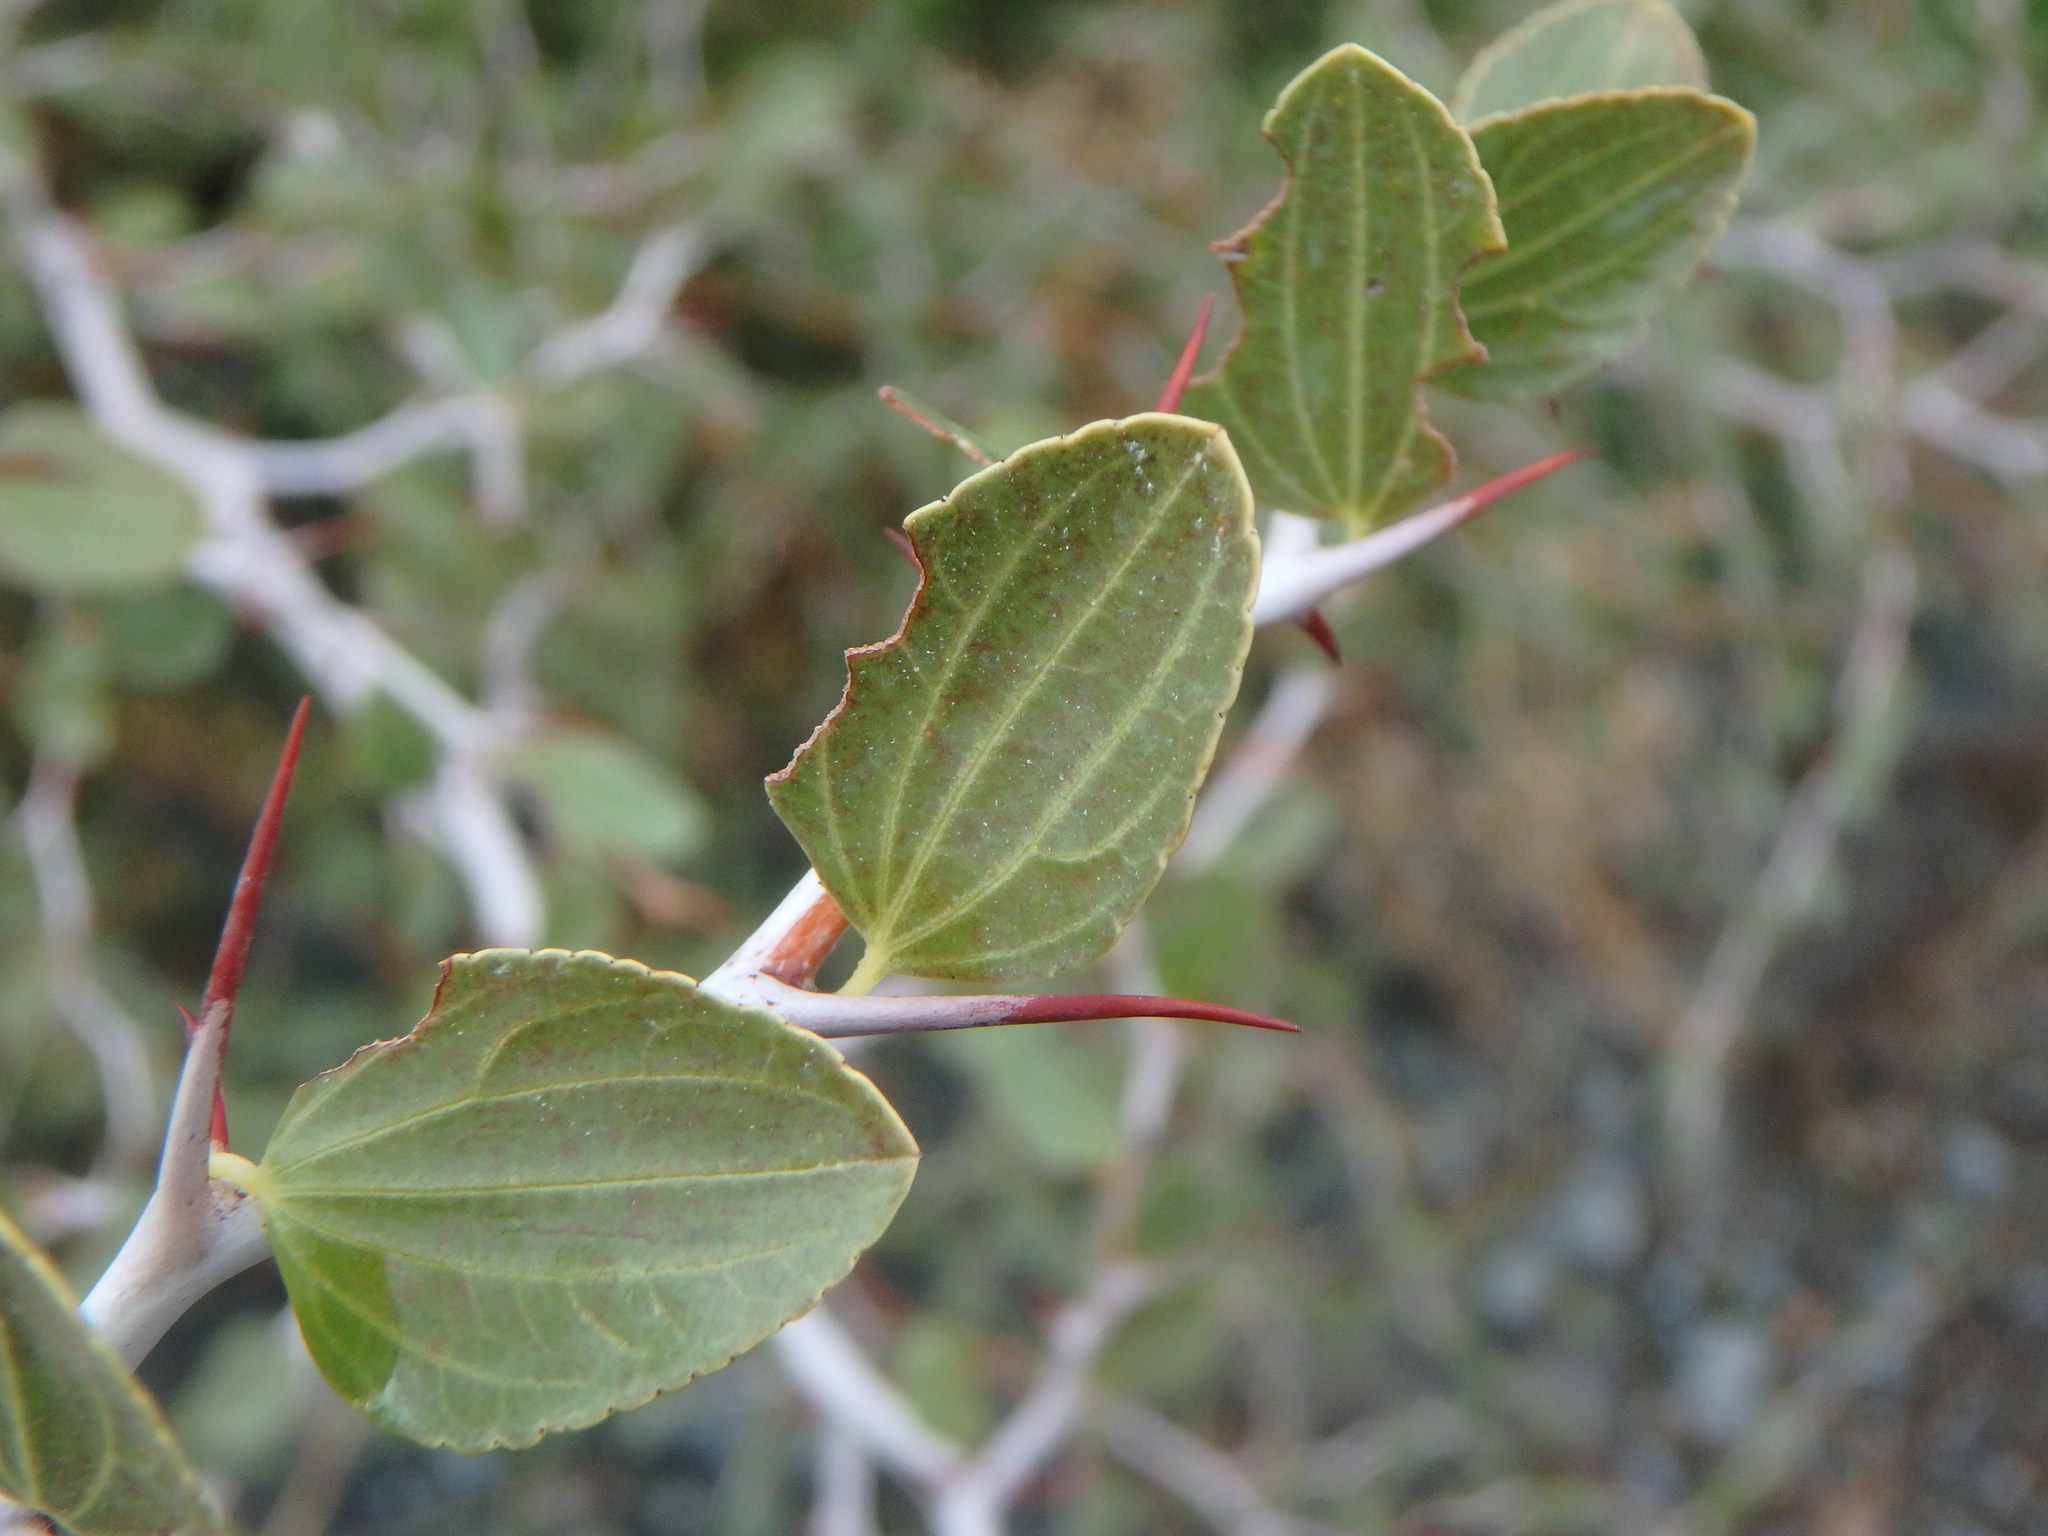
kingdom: Plantae
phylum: Tracheophyta
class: Magnoliopsida
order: Rosales
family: Rhamnaceae
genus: Ziziphus
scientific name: Ziziphus lotus
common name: Lotus
